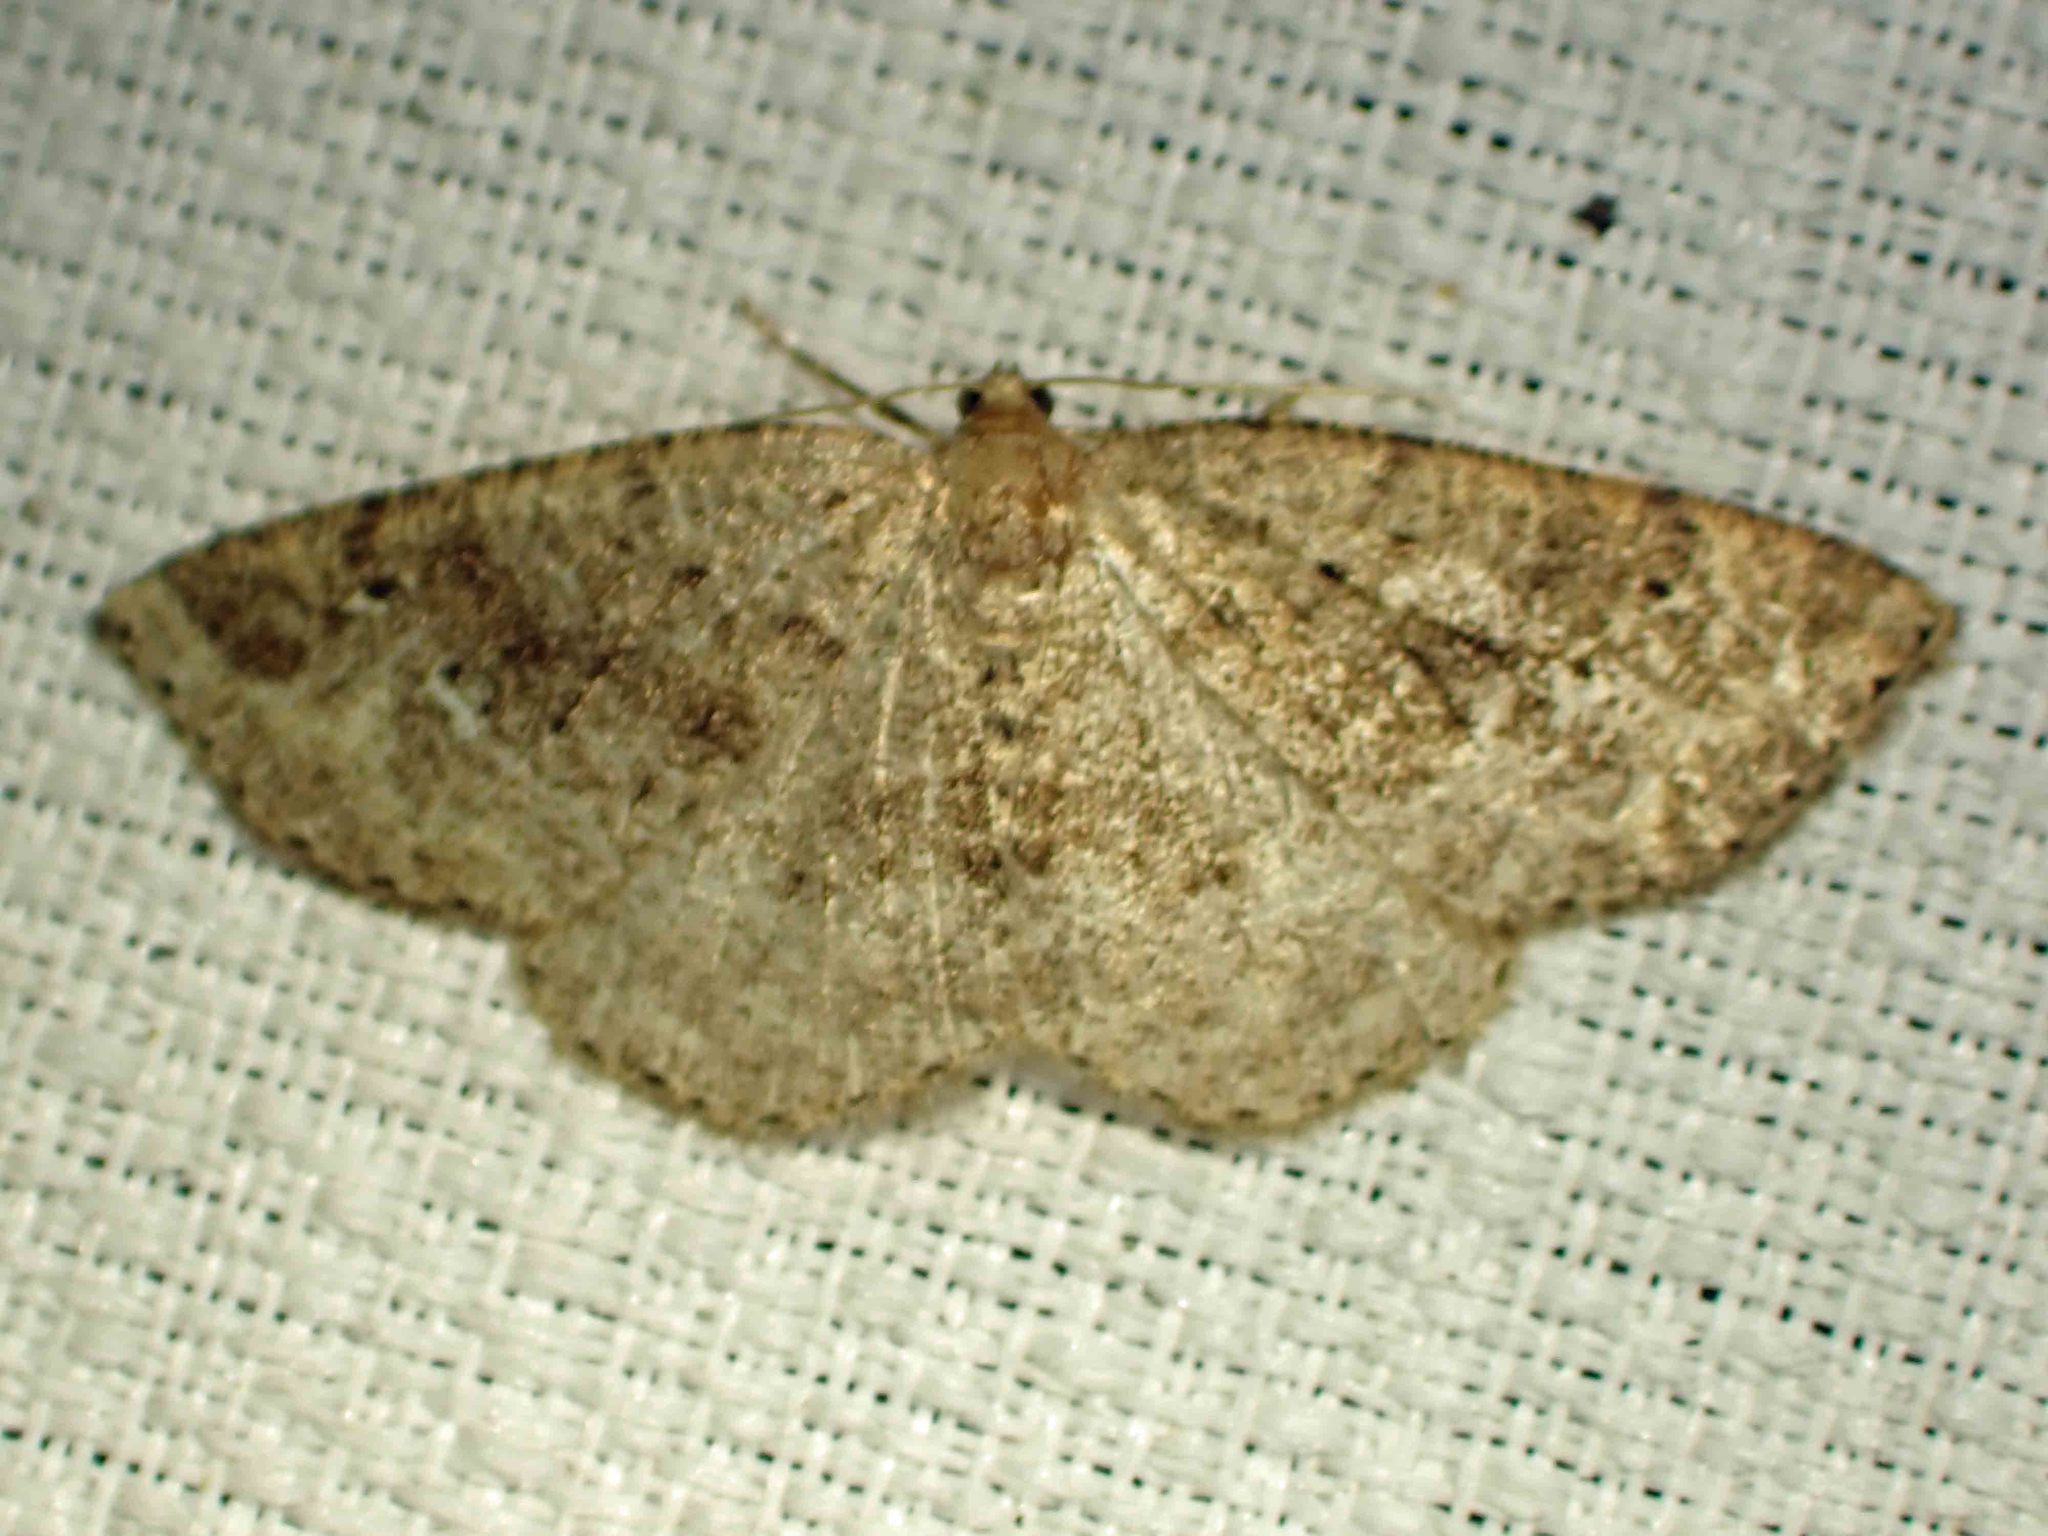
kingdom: Animalia
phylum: Arthropoda
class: Insecta
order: Lepidoptera
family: Geometridae
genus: Homochlodes
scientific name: Homochlodes fritillaria
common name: Pale homochlodes
